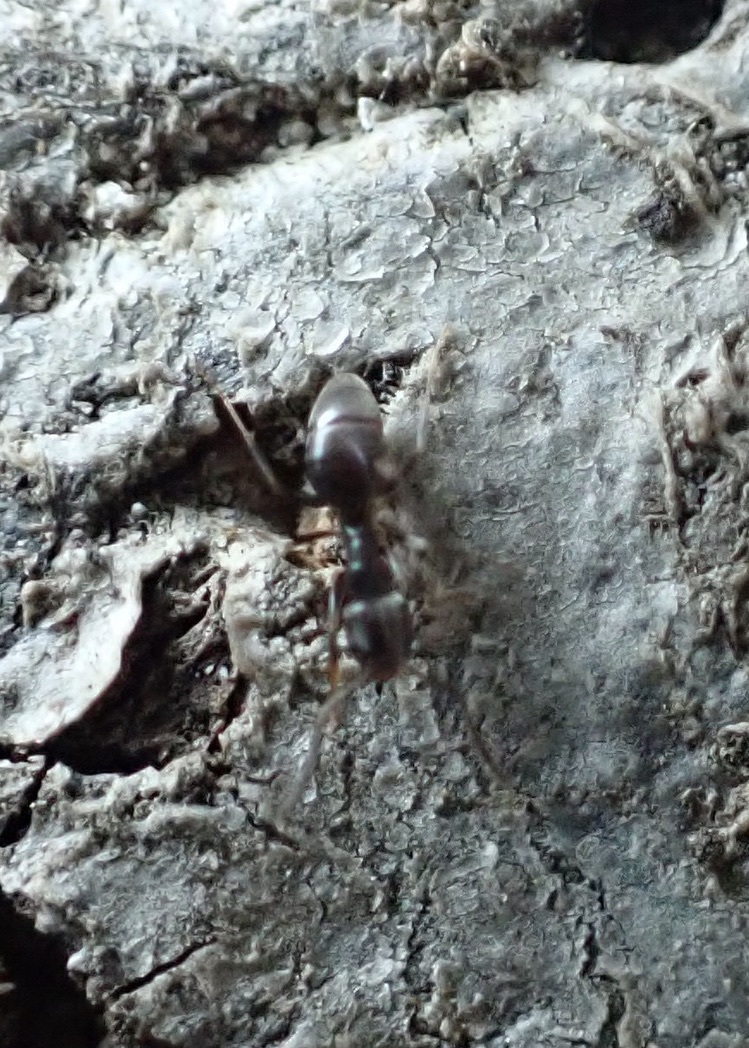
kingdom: Animalia
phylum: Arthropoda
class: Insecta
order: Hymenoptera
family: Formicidae
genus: Tapinoma
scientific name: Tapinoma sessile
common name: Odorous house ant
